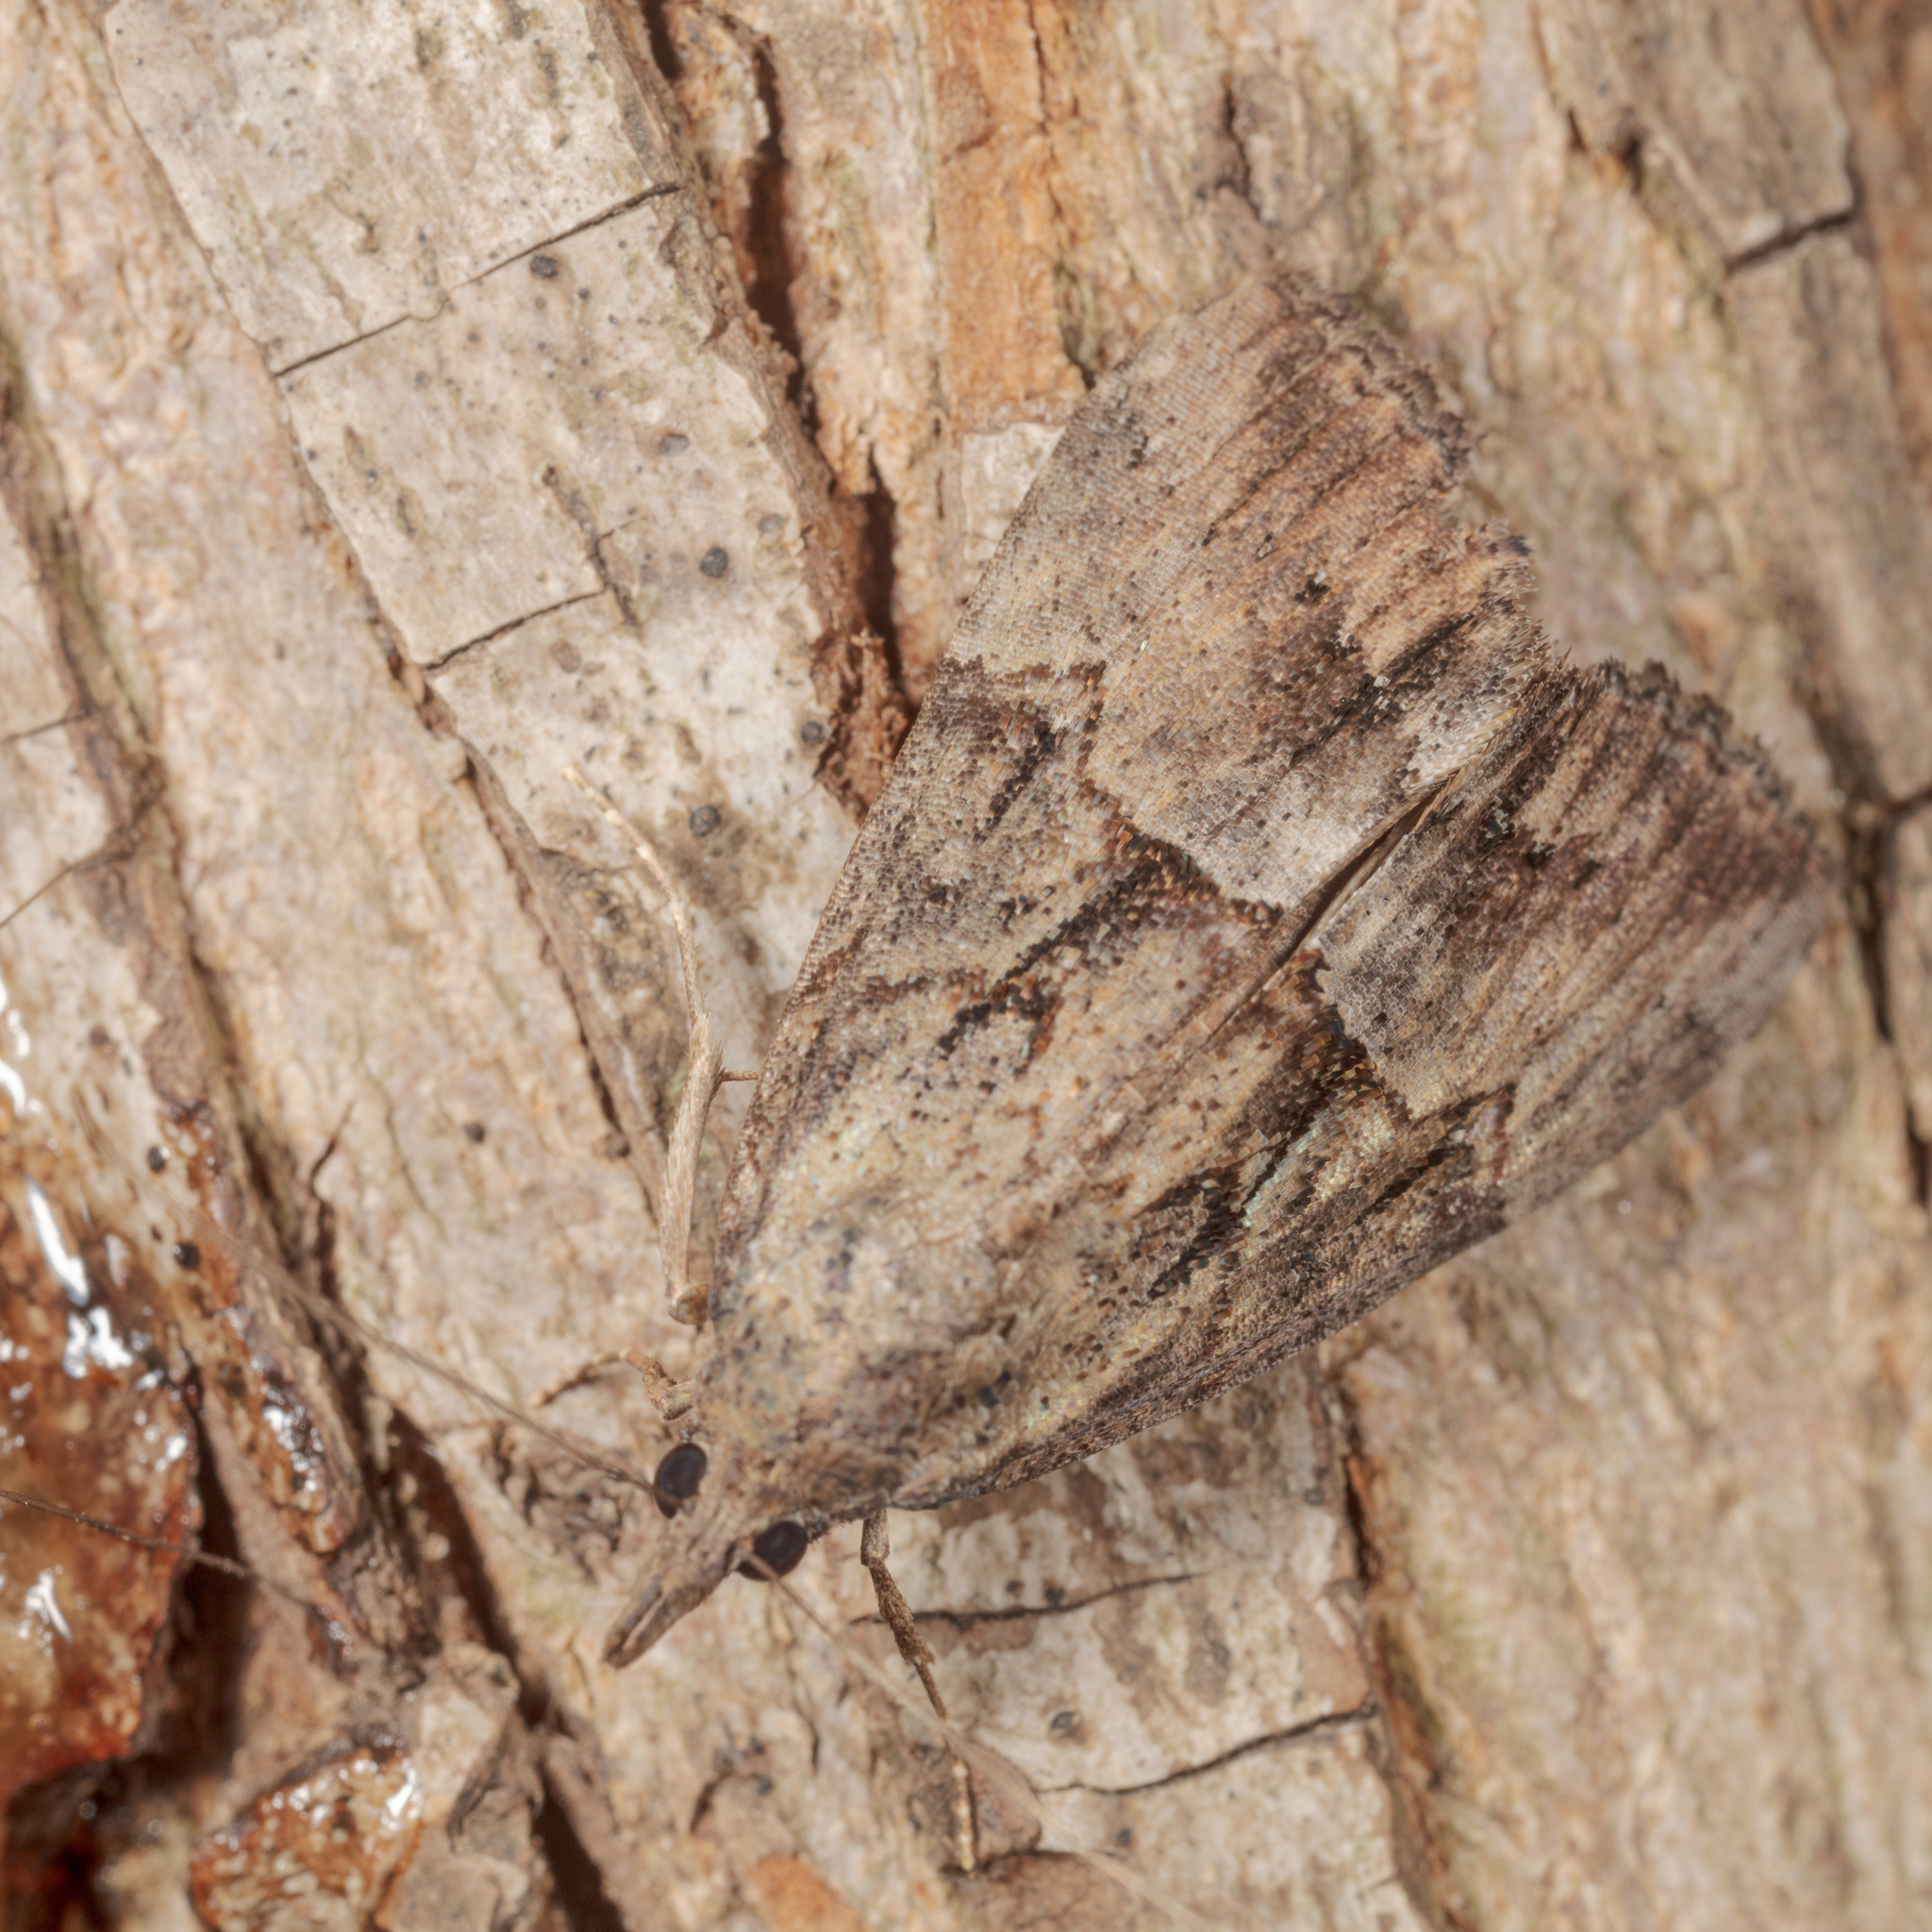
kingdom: Animalia
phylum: Arthropoda
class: Insecta
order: Lepidoptera
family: Erebidae
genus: Hypena
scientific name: Hypena scabra
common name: Green cloverworm
